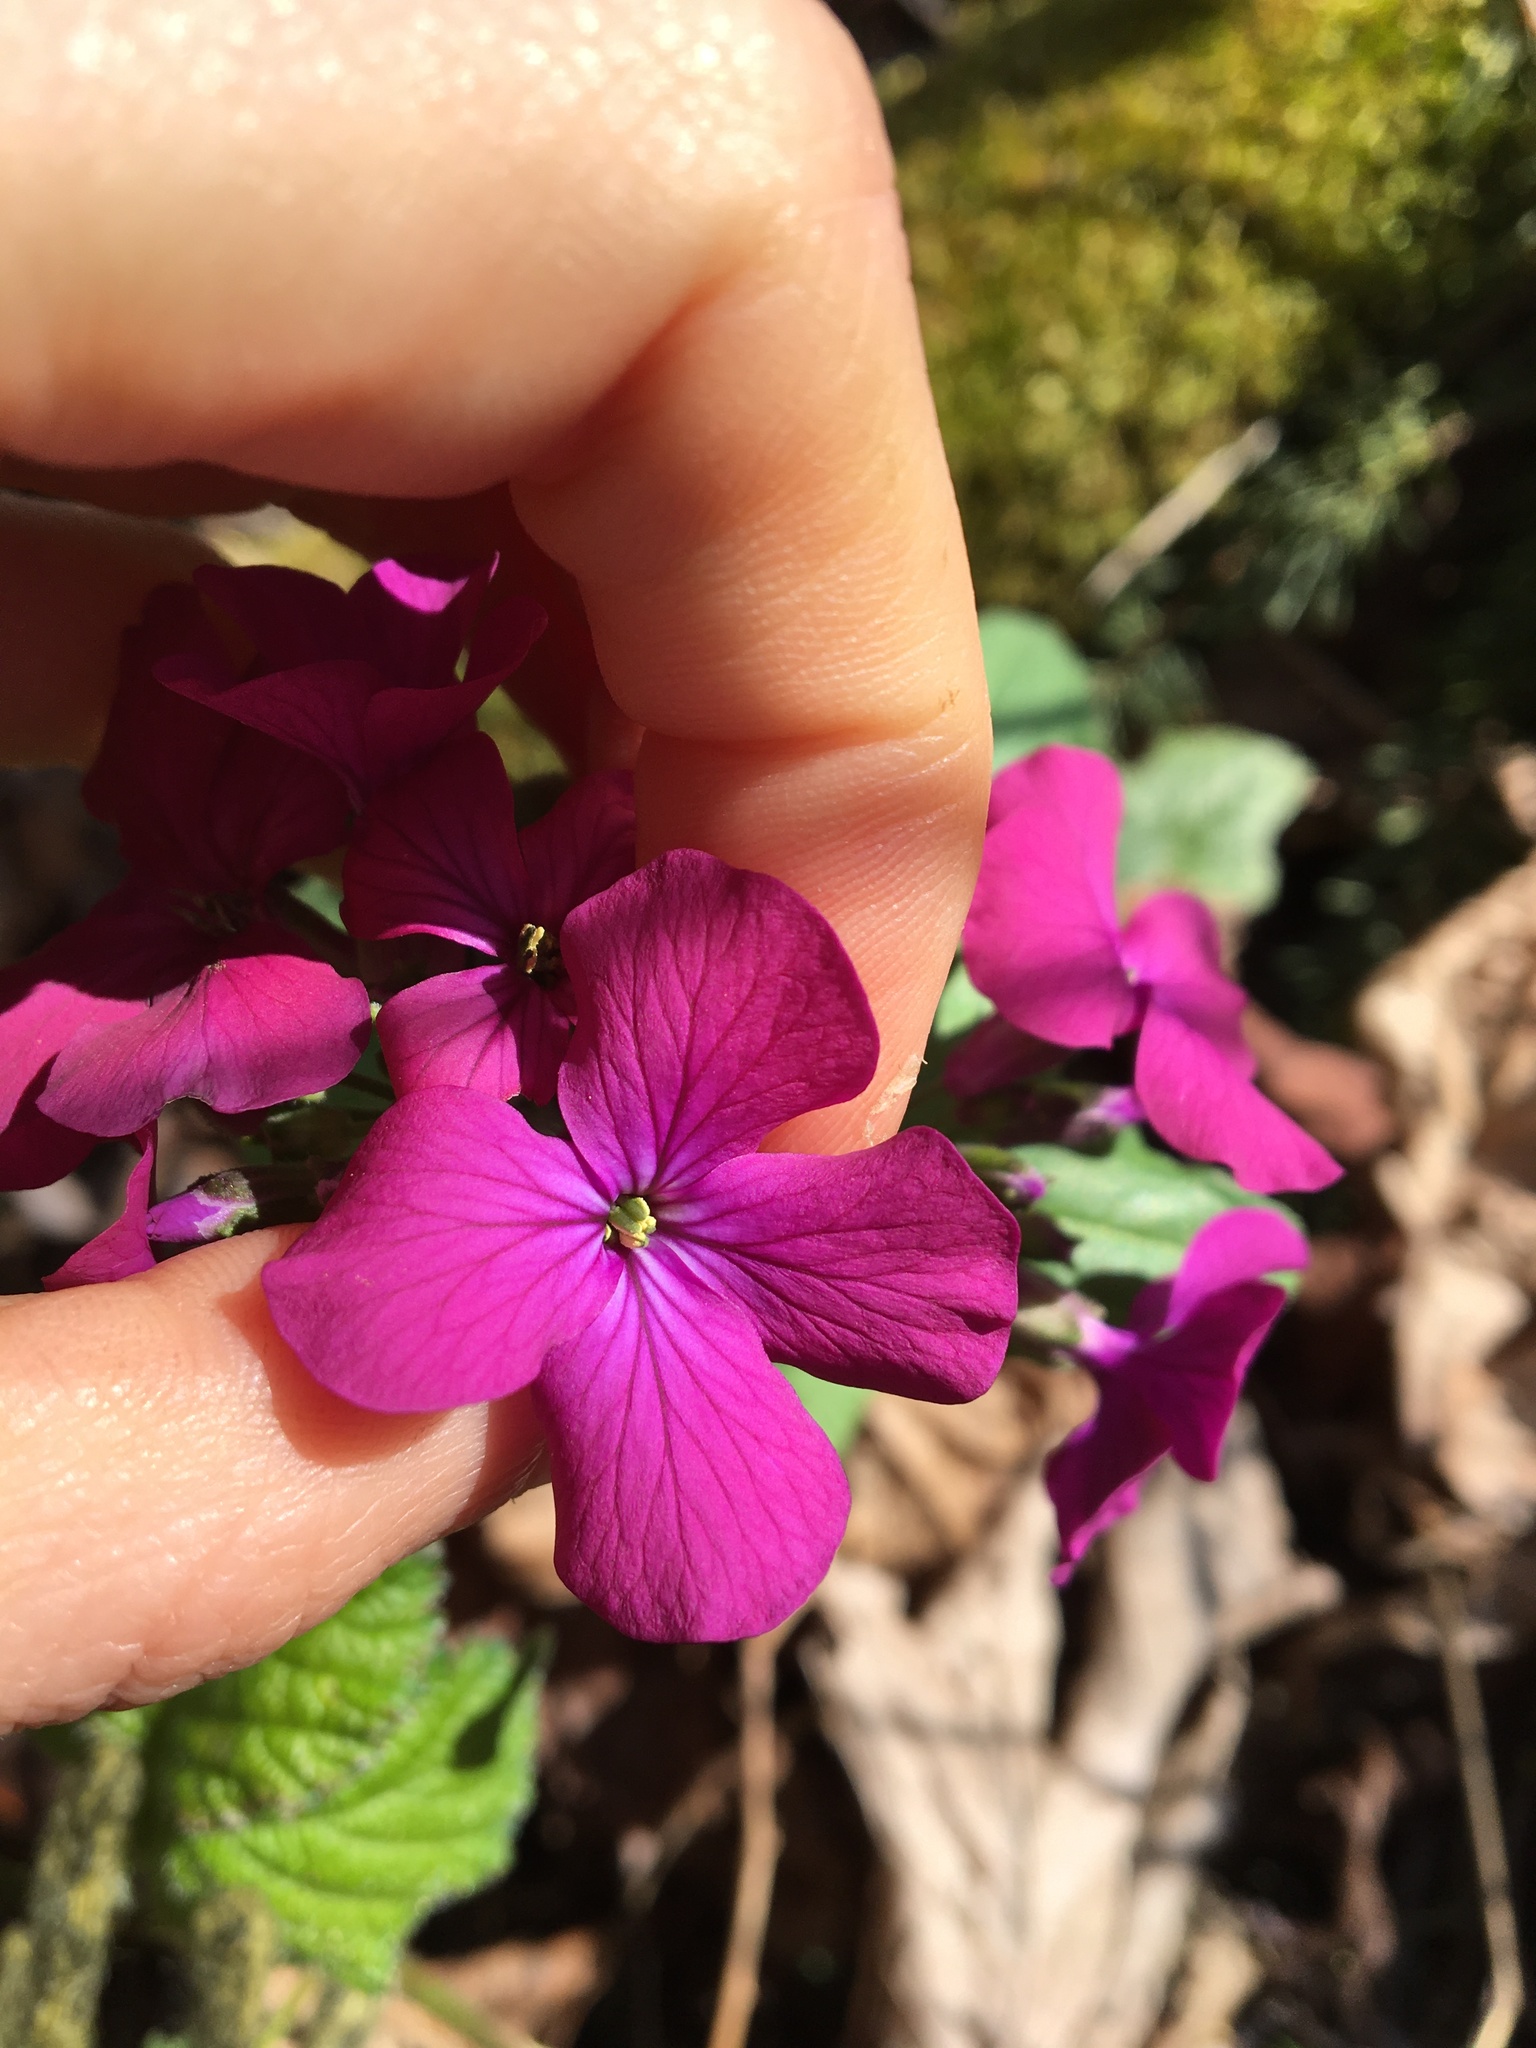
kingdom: Plantae
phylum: Tracheophyta
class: Magnoliopsida
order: Brassicales
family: Brassicaceae
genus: Lunaria
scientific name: Lunaria annua
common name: Honesty
